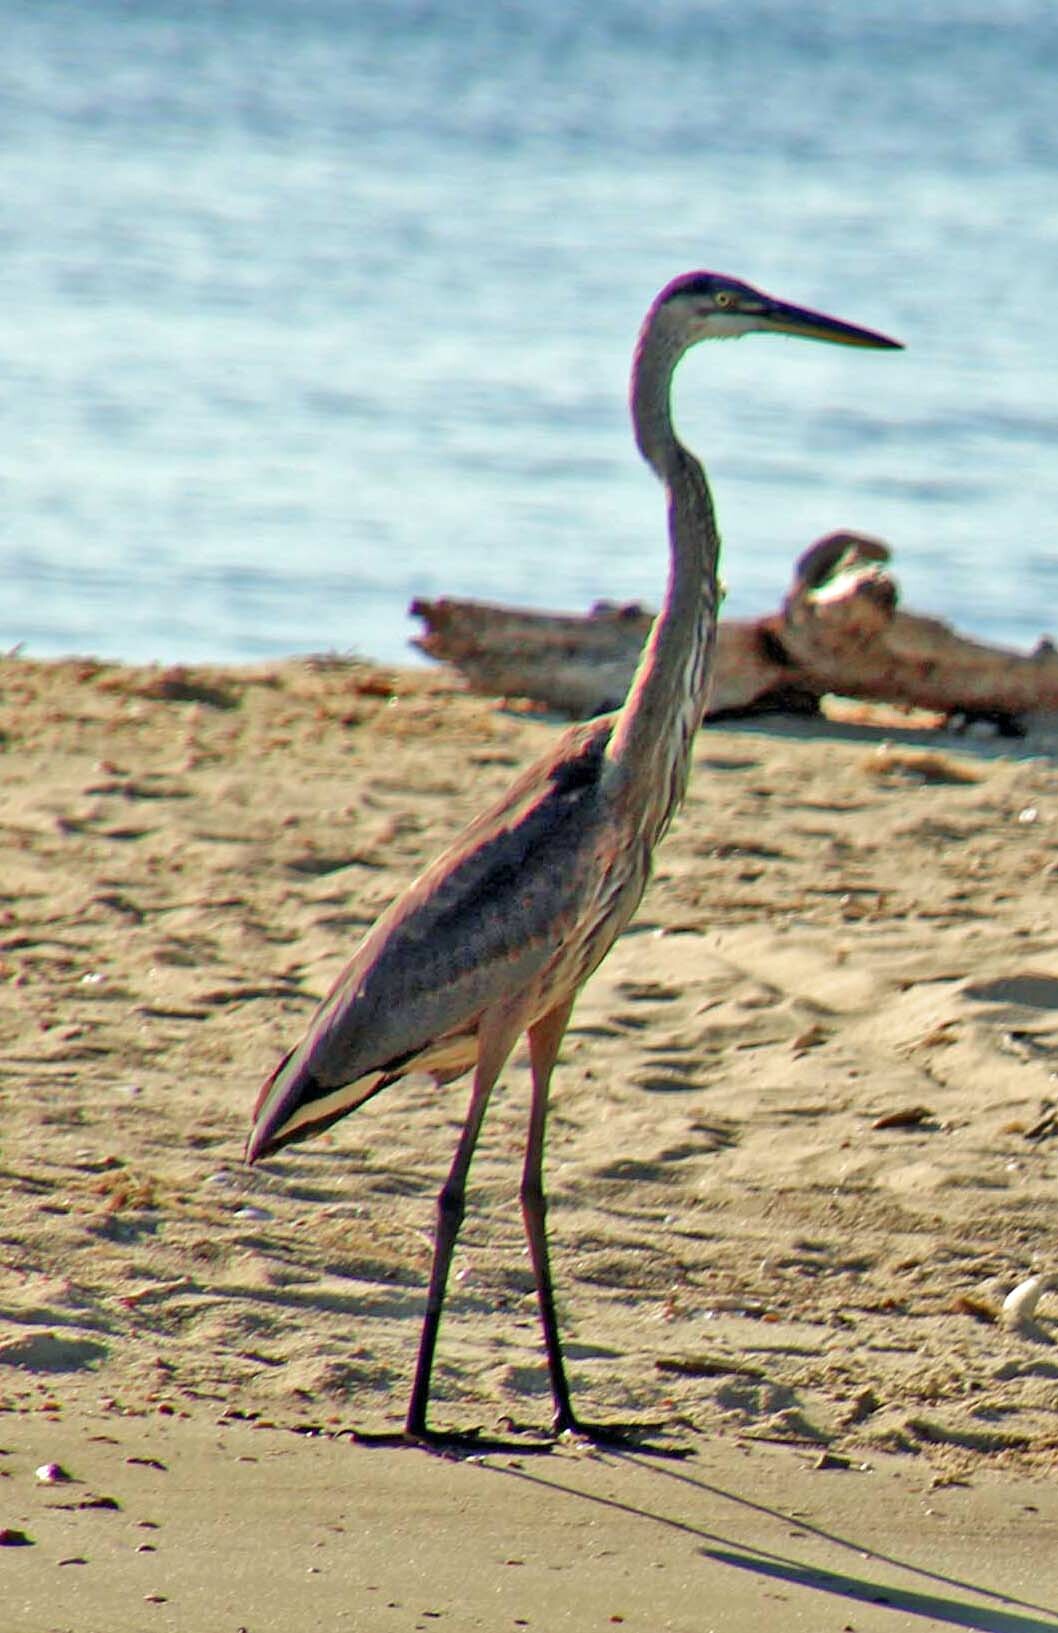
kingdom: Animalia
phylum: Chordata
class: Aves
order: Pelecaniformes
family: Ardeidae
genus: Ardea
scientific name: Ardea herodias
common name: Great blue heron
